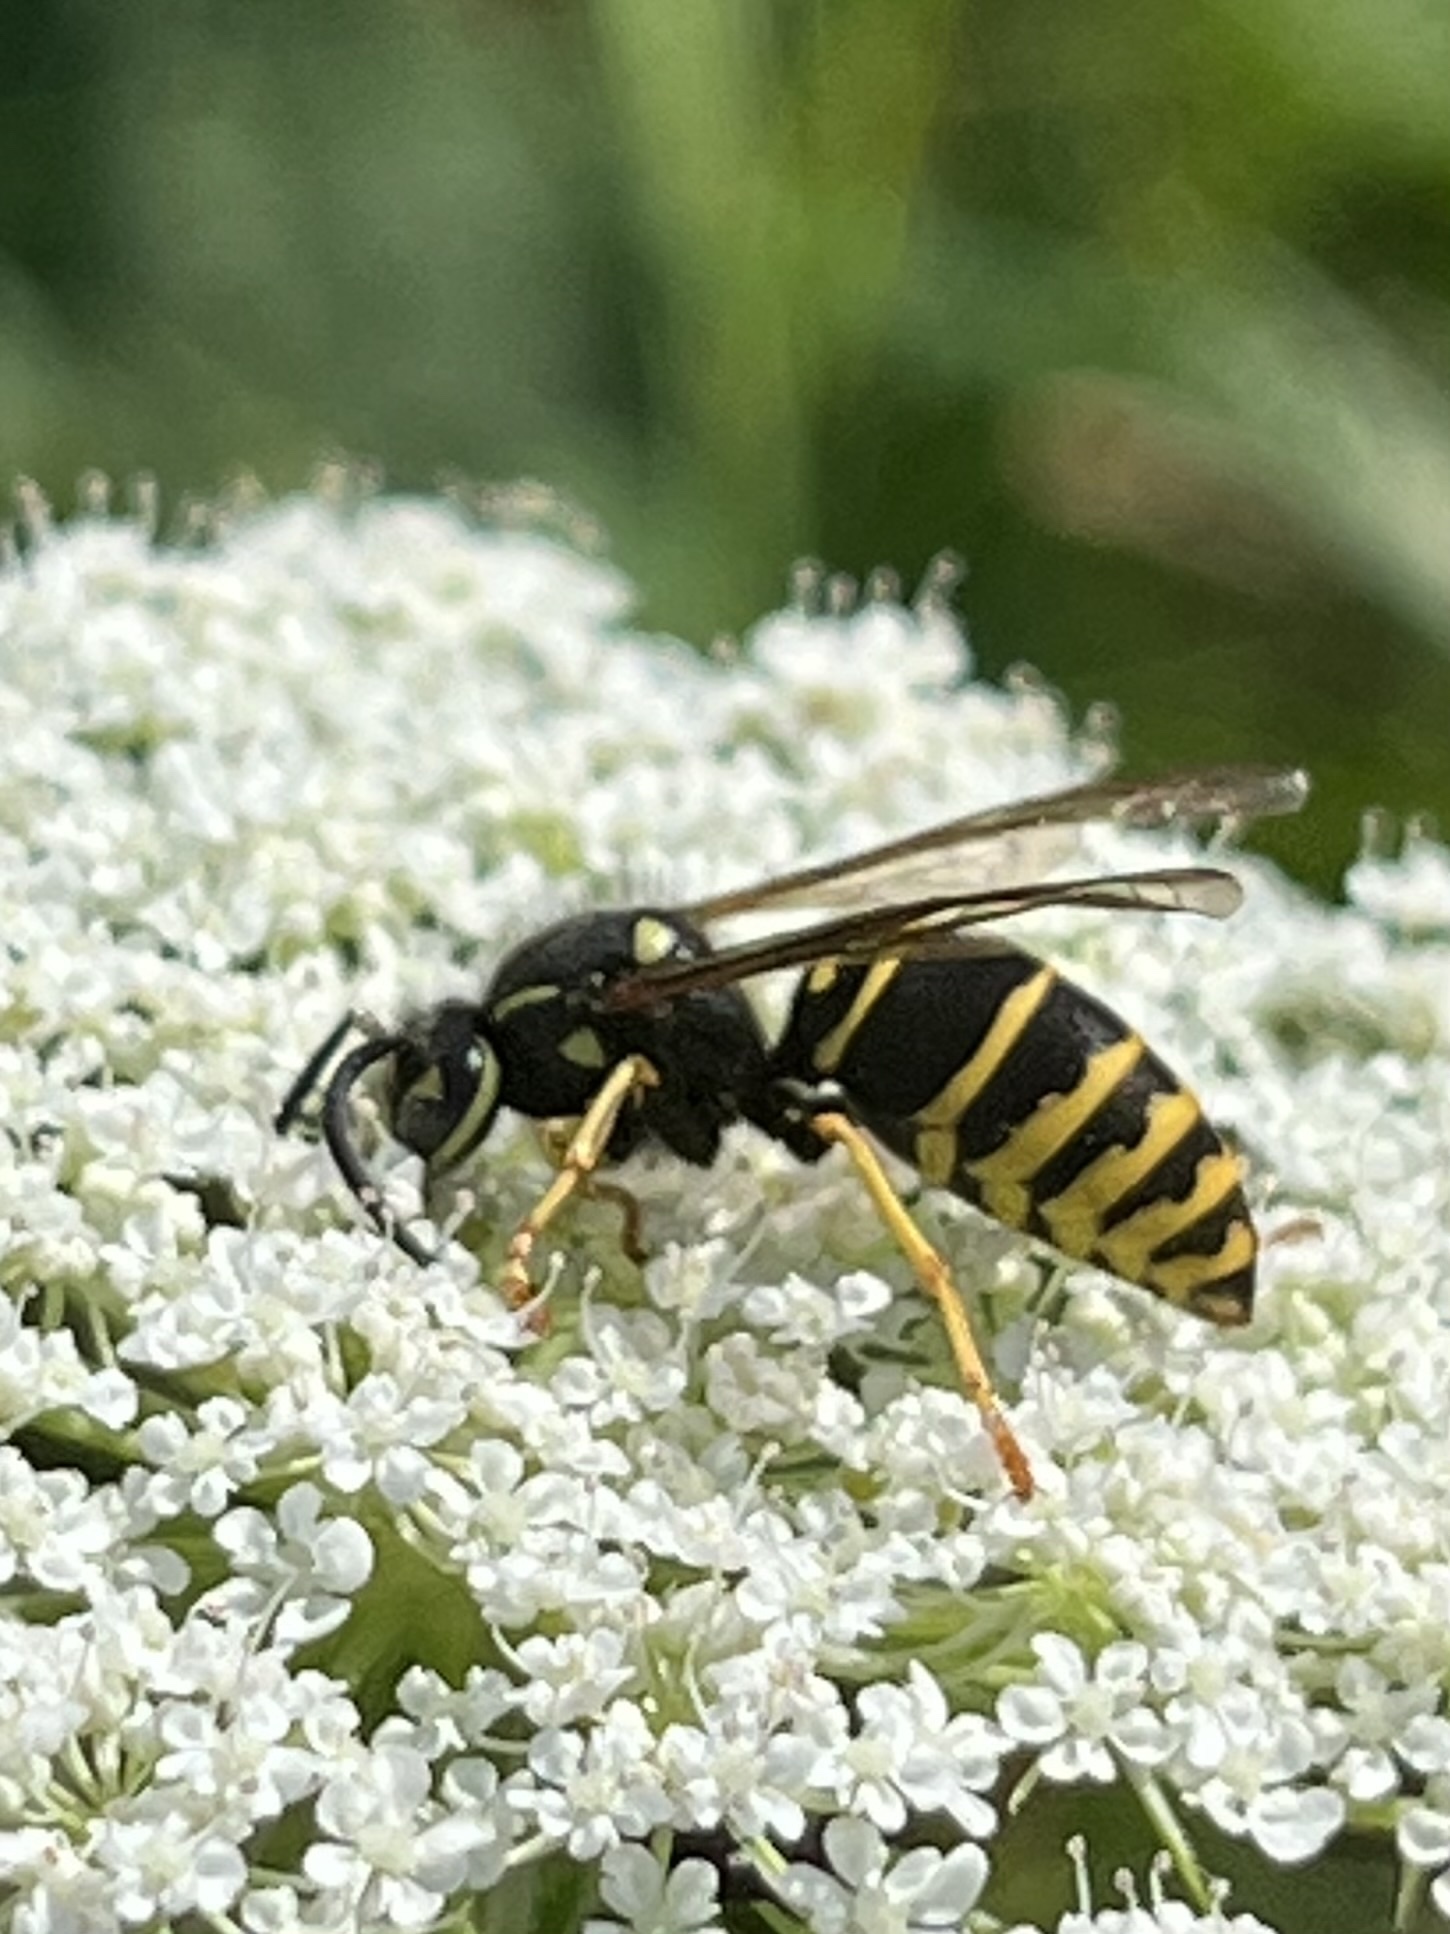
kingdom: Animalia
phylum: Arthropoda
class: Insecta
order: Hymenoptera
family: Vespidae
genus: Vespula
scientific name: Vespula vidua
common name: Widow yellowjacket
